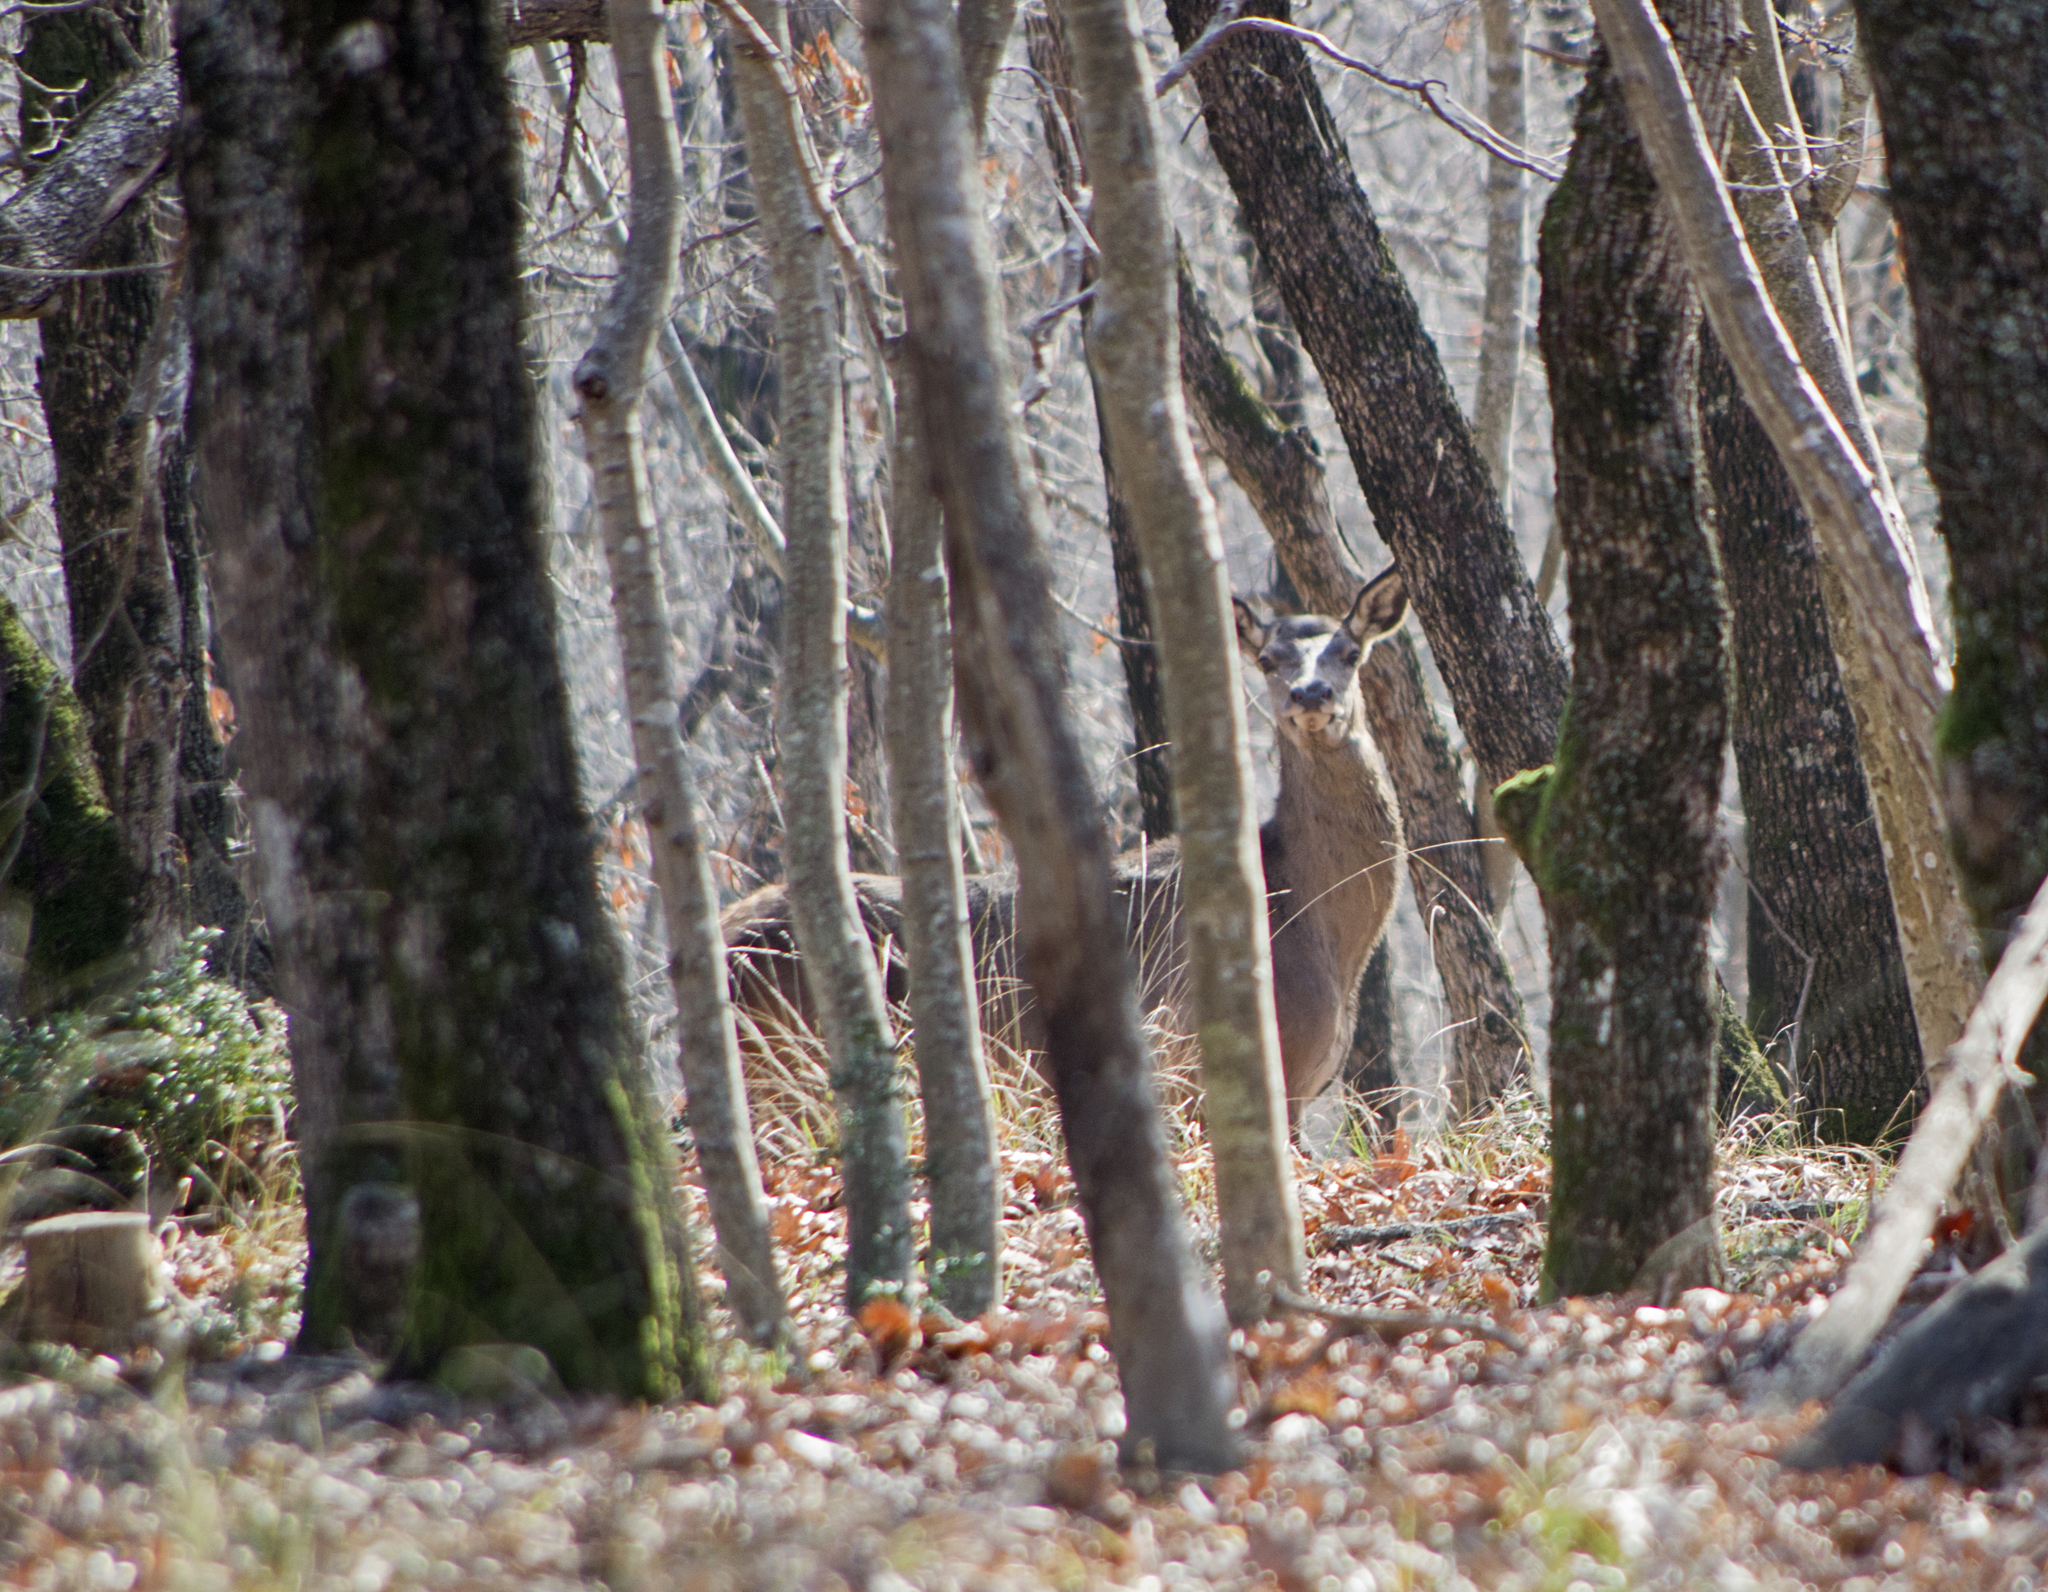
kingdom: Animalia
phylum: Chordata
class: Mammalia
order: Artiodactyla
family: Cervidae
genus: Cervus
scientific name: Cervus elaphus
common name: Red deer
